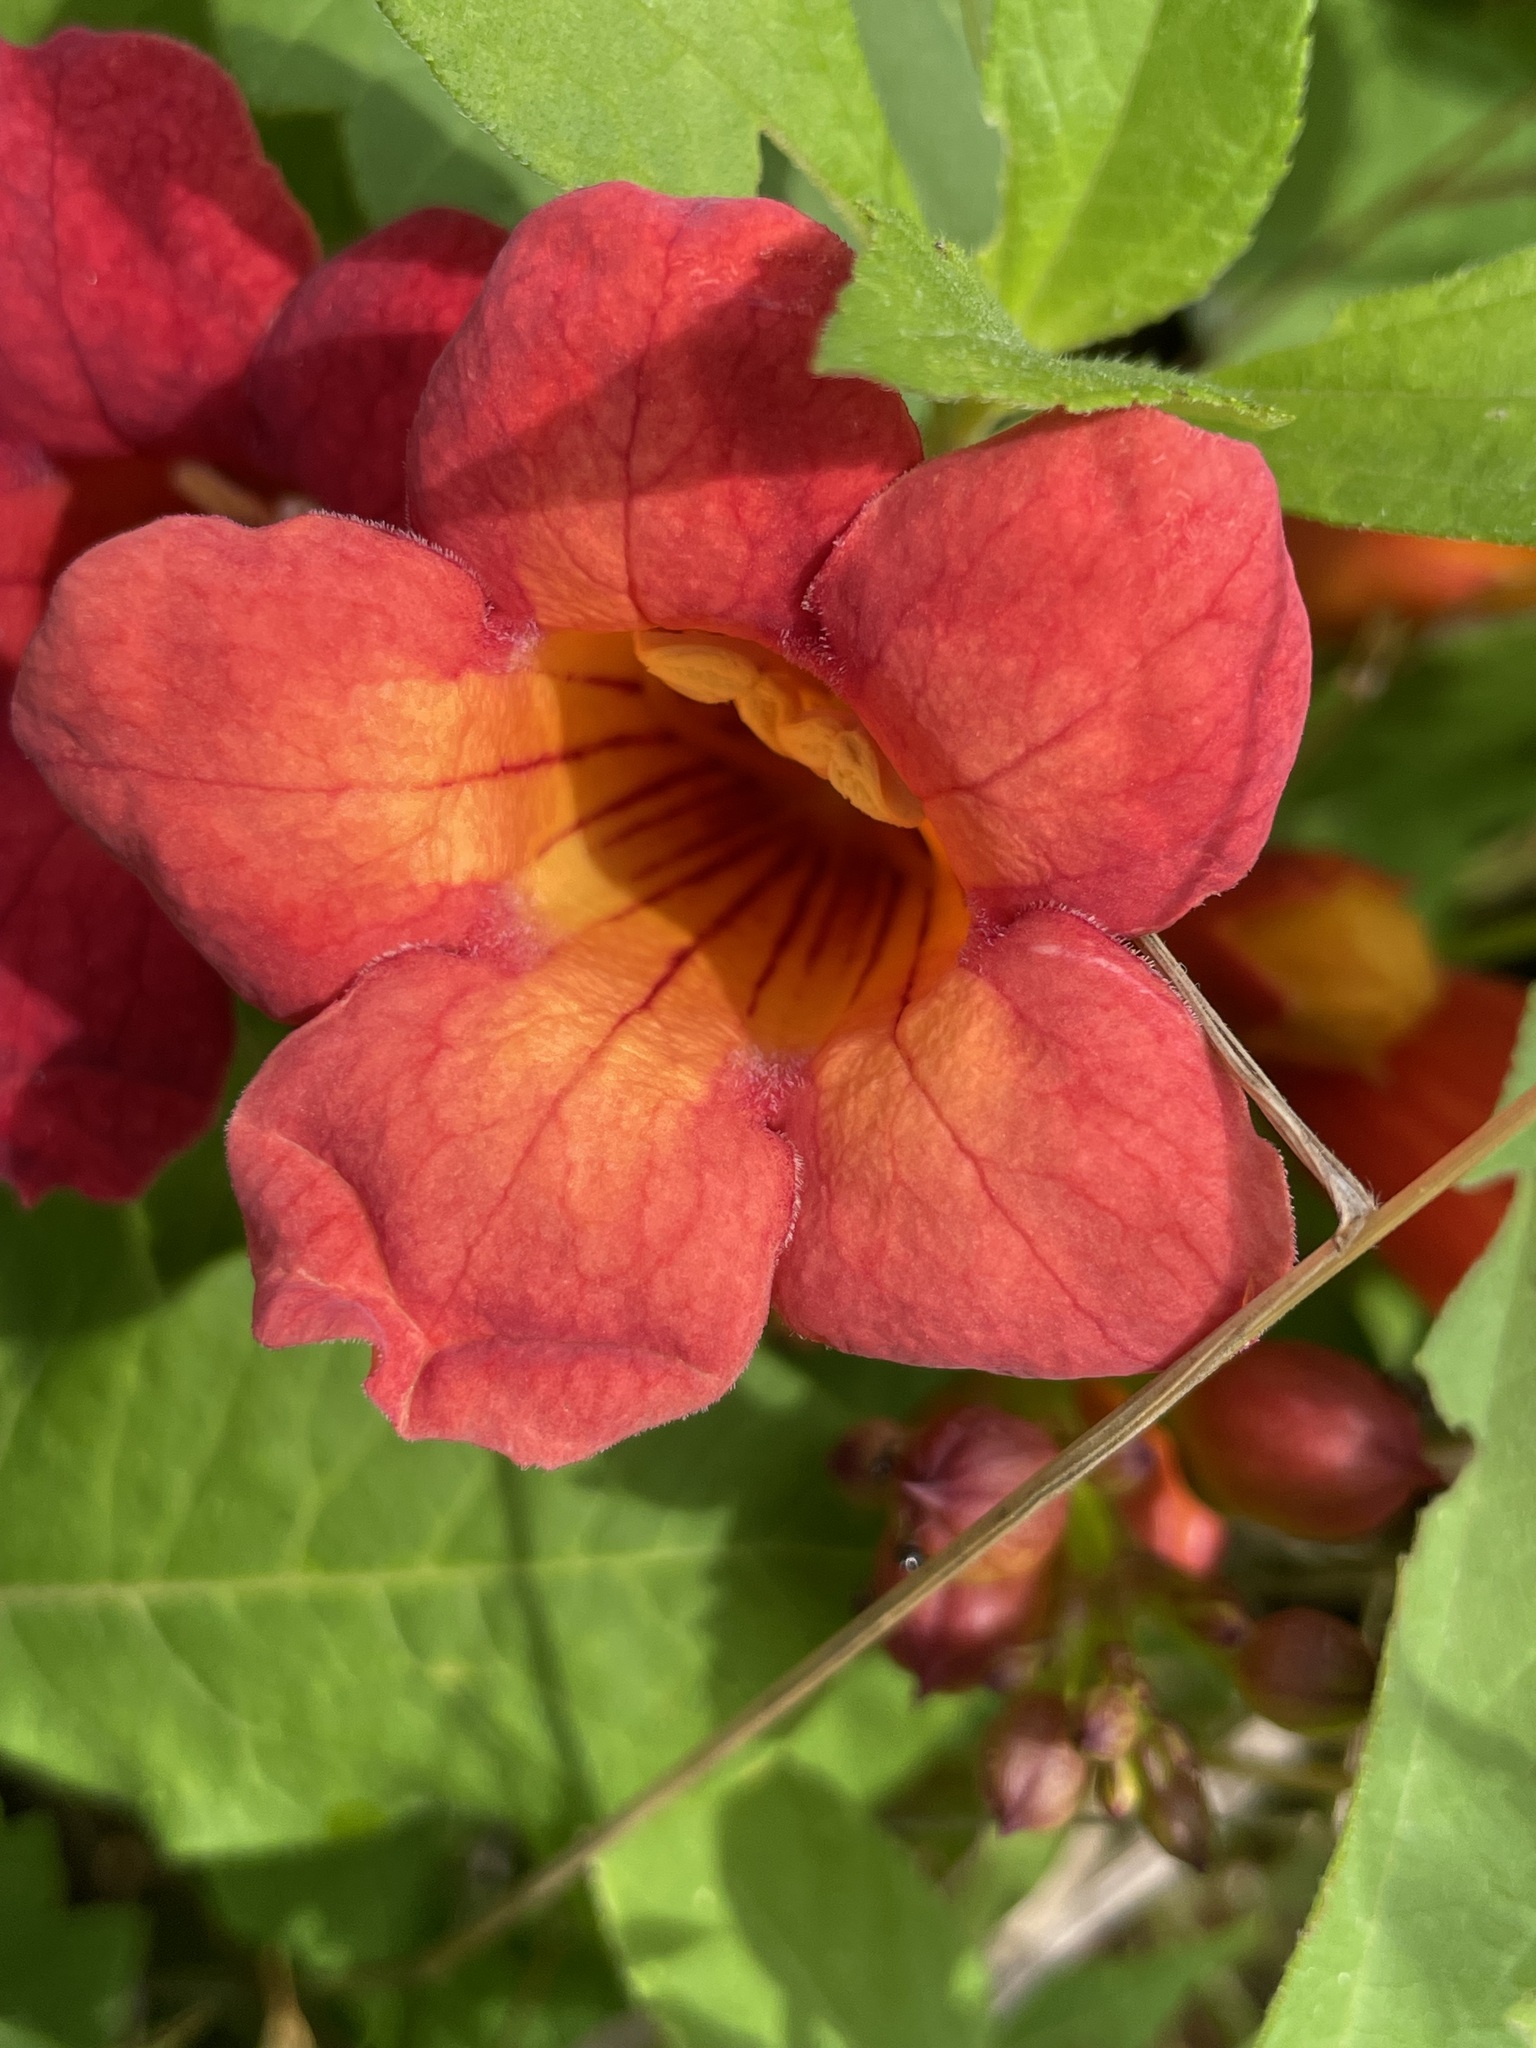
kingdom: Plantae
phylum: Tracheophyta
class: Magnoliopsida
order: Lamiales
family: Bignoniaceae
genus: Campsis
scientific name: Campsis radicans
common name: Trumpet-creeper
